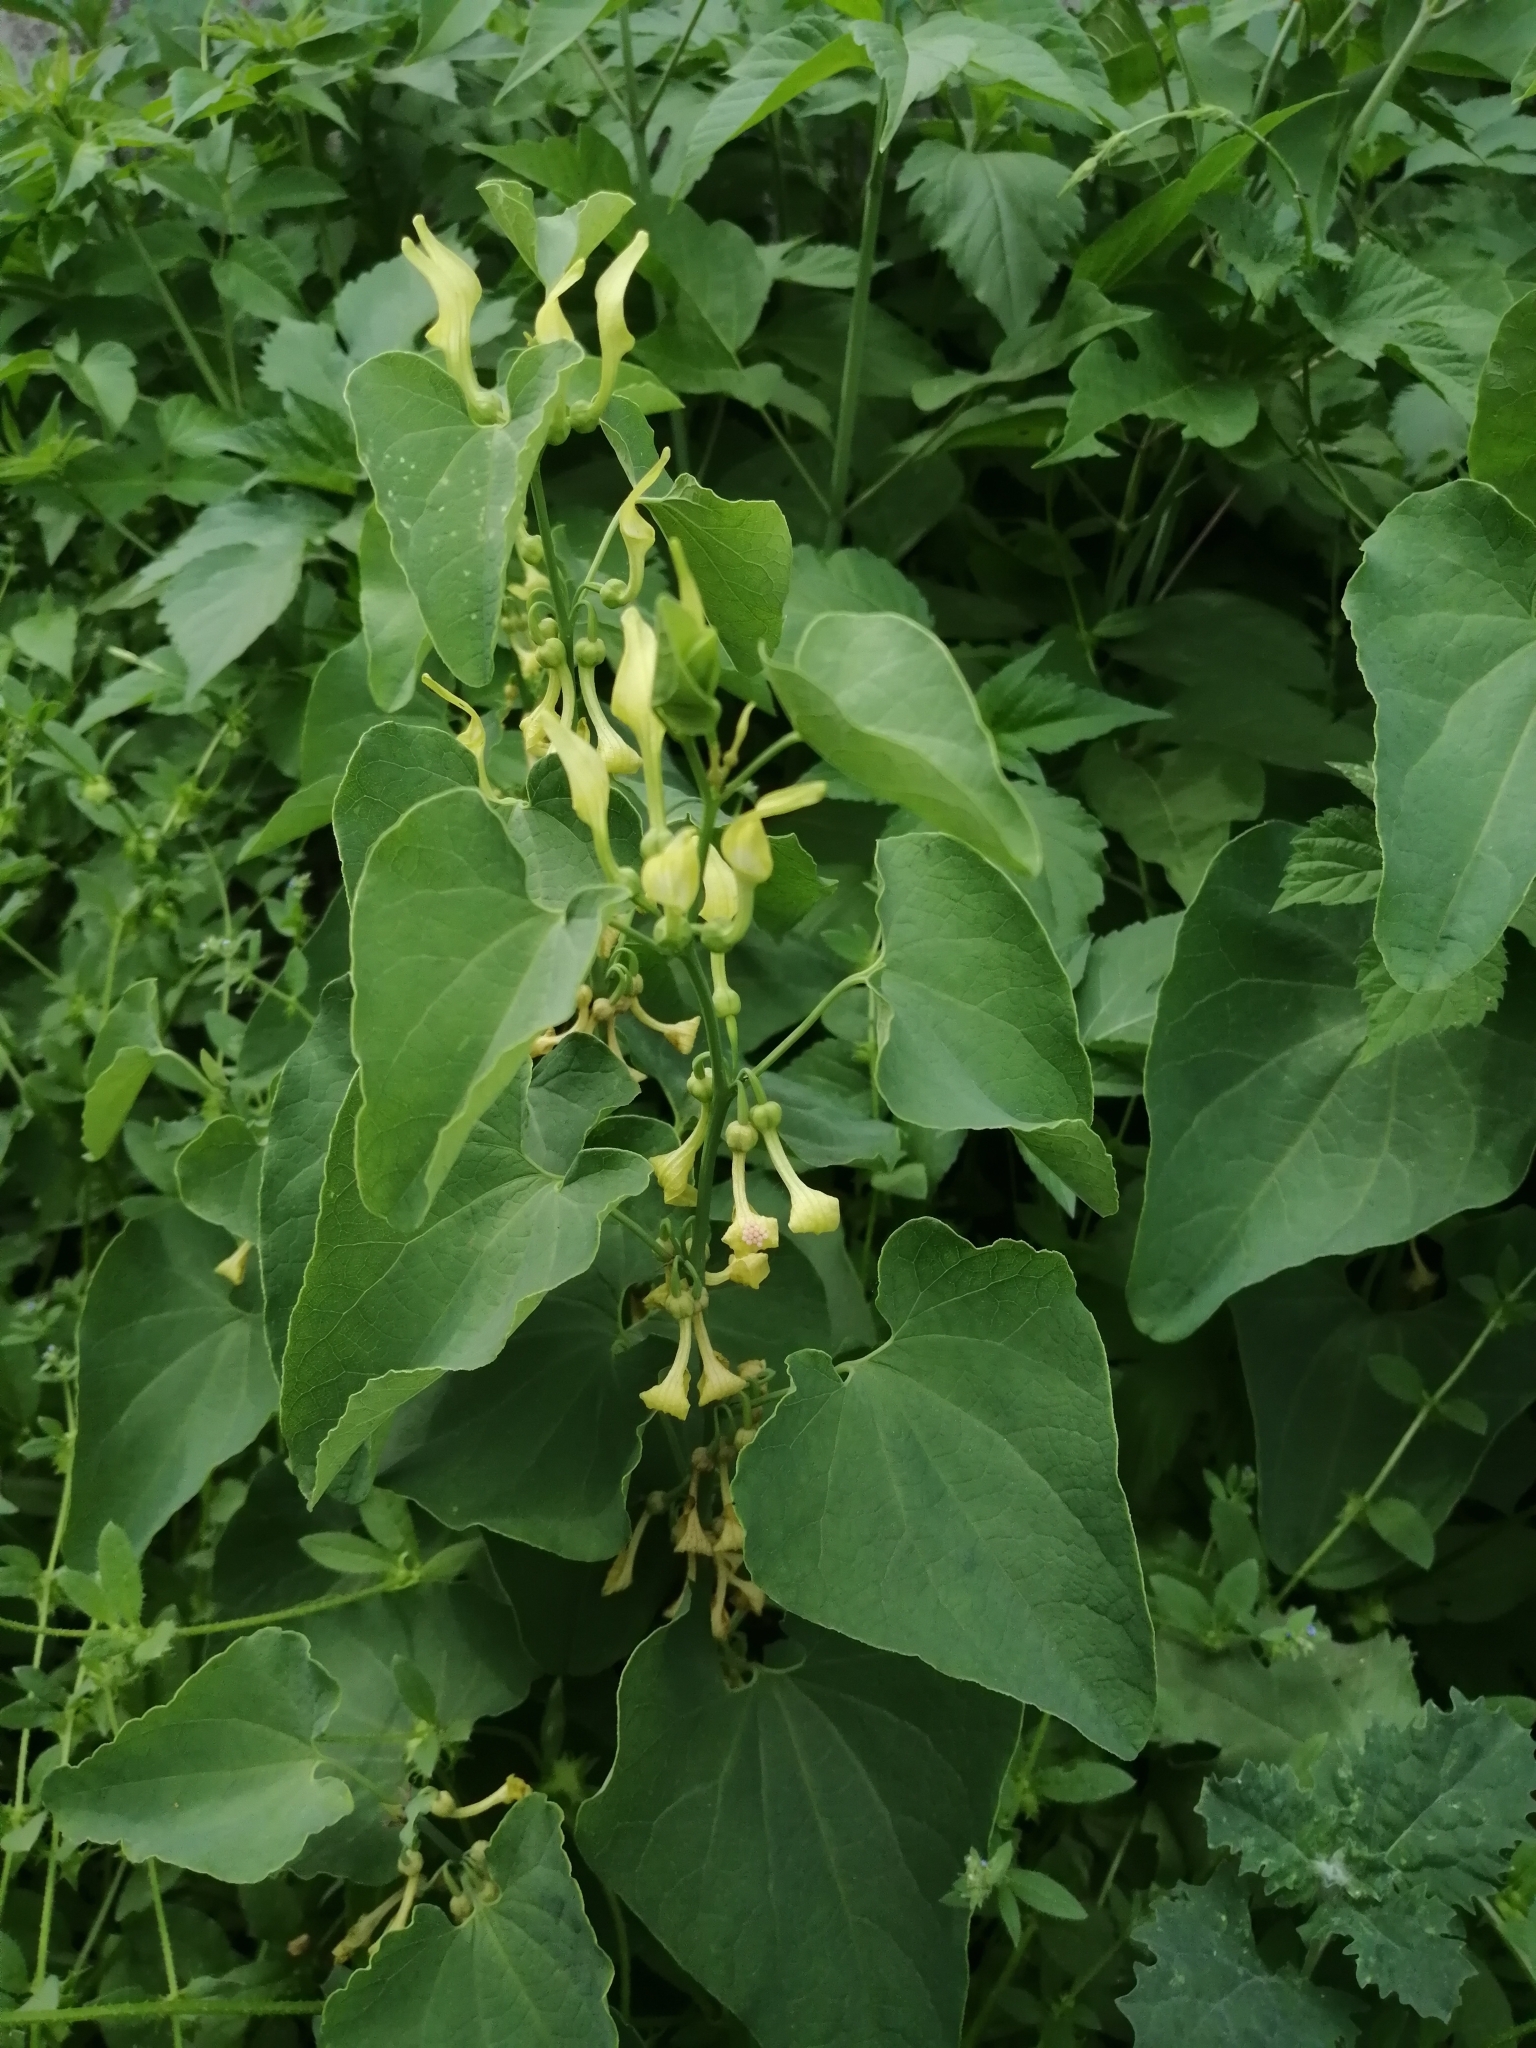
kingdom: Plantae
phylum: Tracheophyta
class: Magnoliopsida
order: Piperales
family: Aristolochiaceae
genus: Aristolochia
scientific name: Aristolochia clematitis
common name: Birthwort
